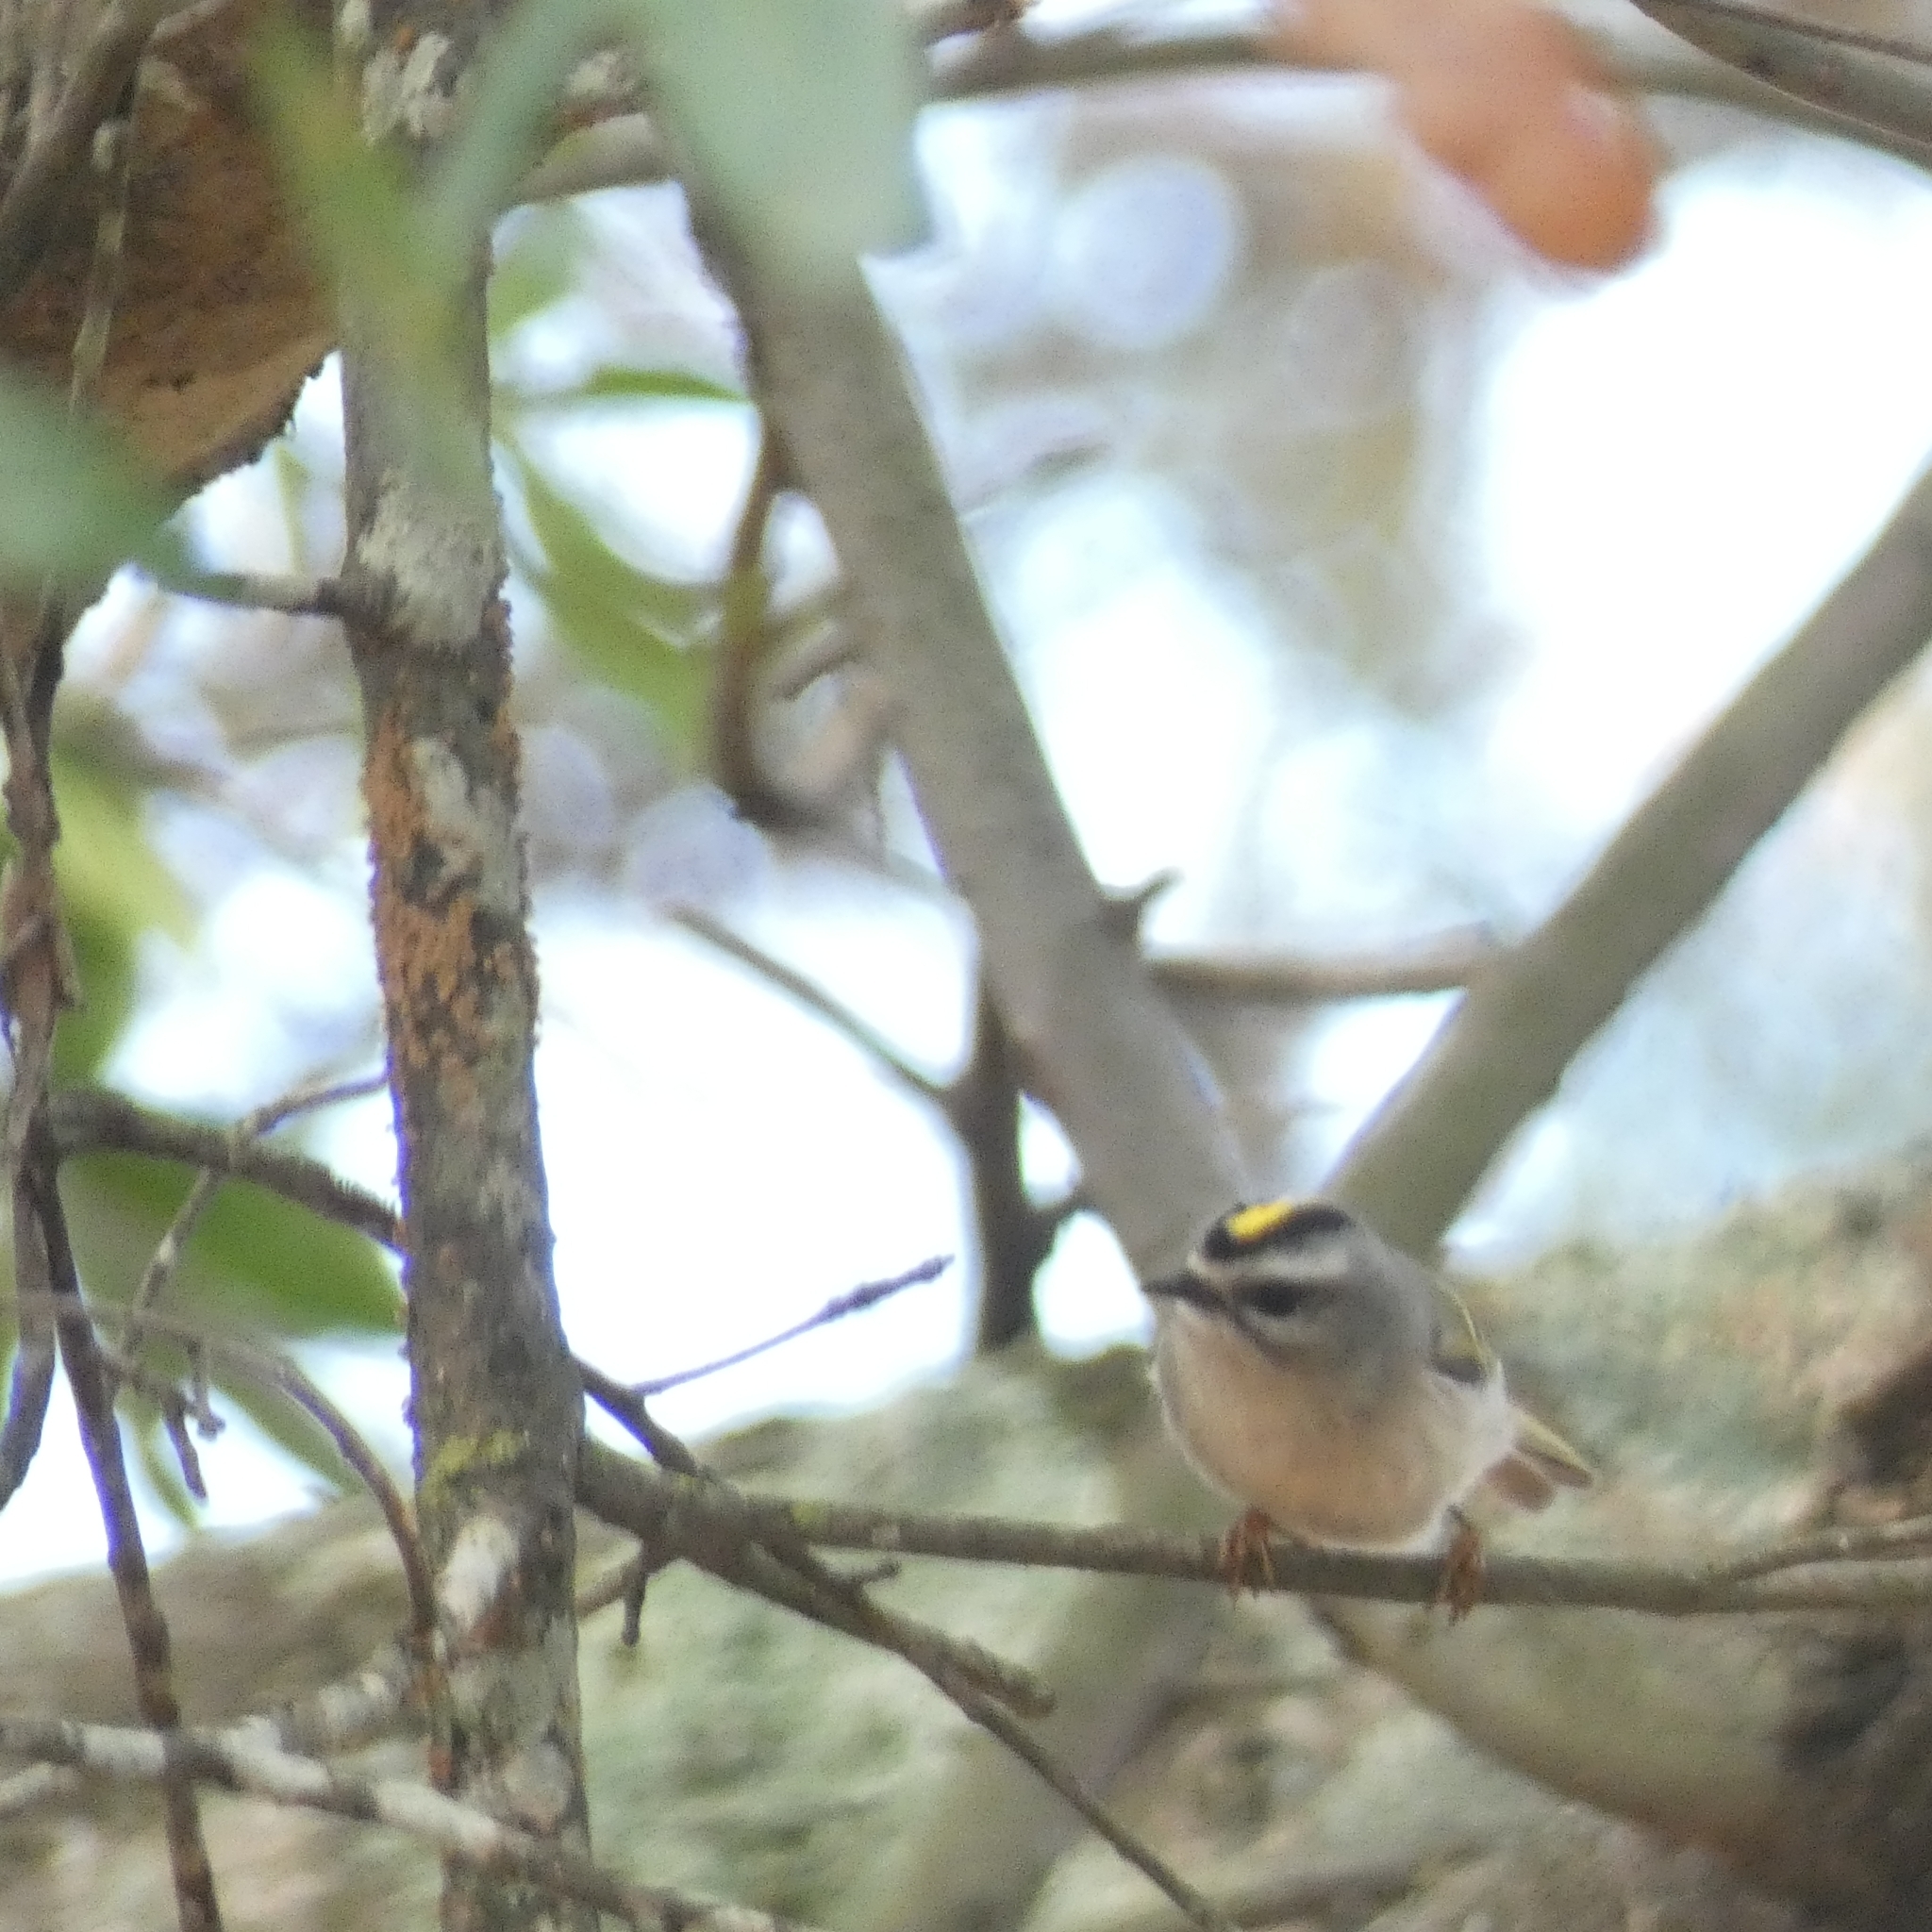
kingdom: Animalia
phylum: Chordata
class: Aves
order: Passeriformes
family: Regulidae
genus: Regulus
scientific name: Regulus satrapa
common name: Golden-crowned kinglet
